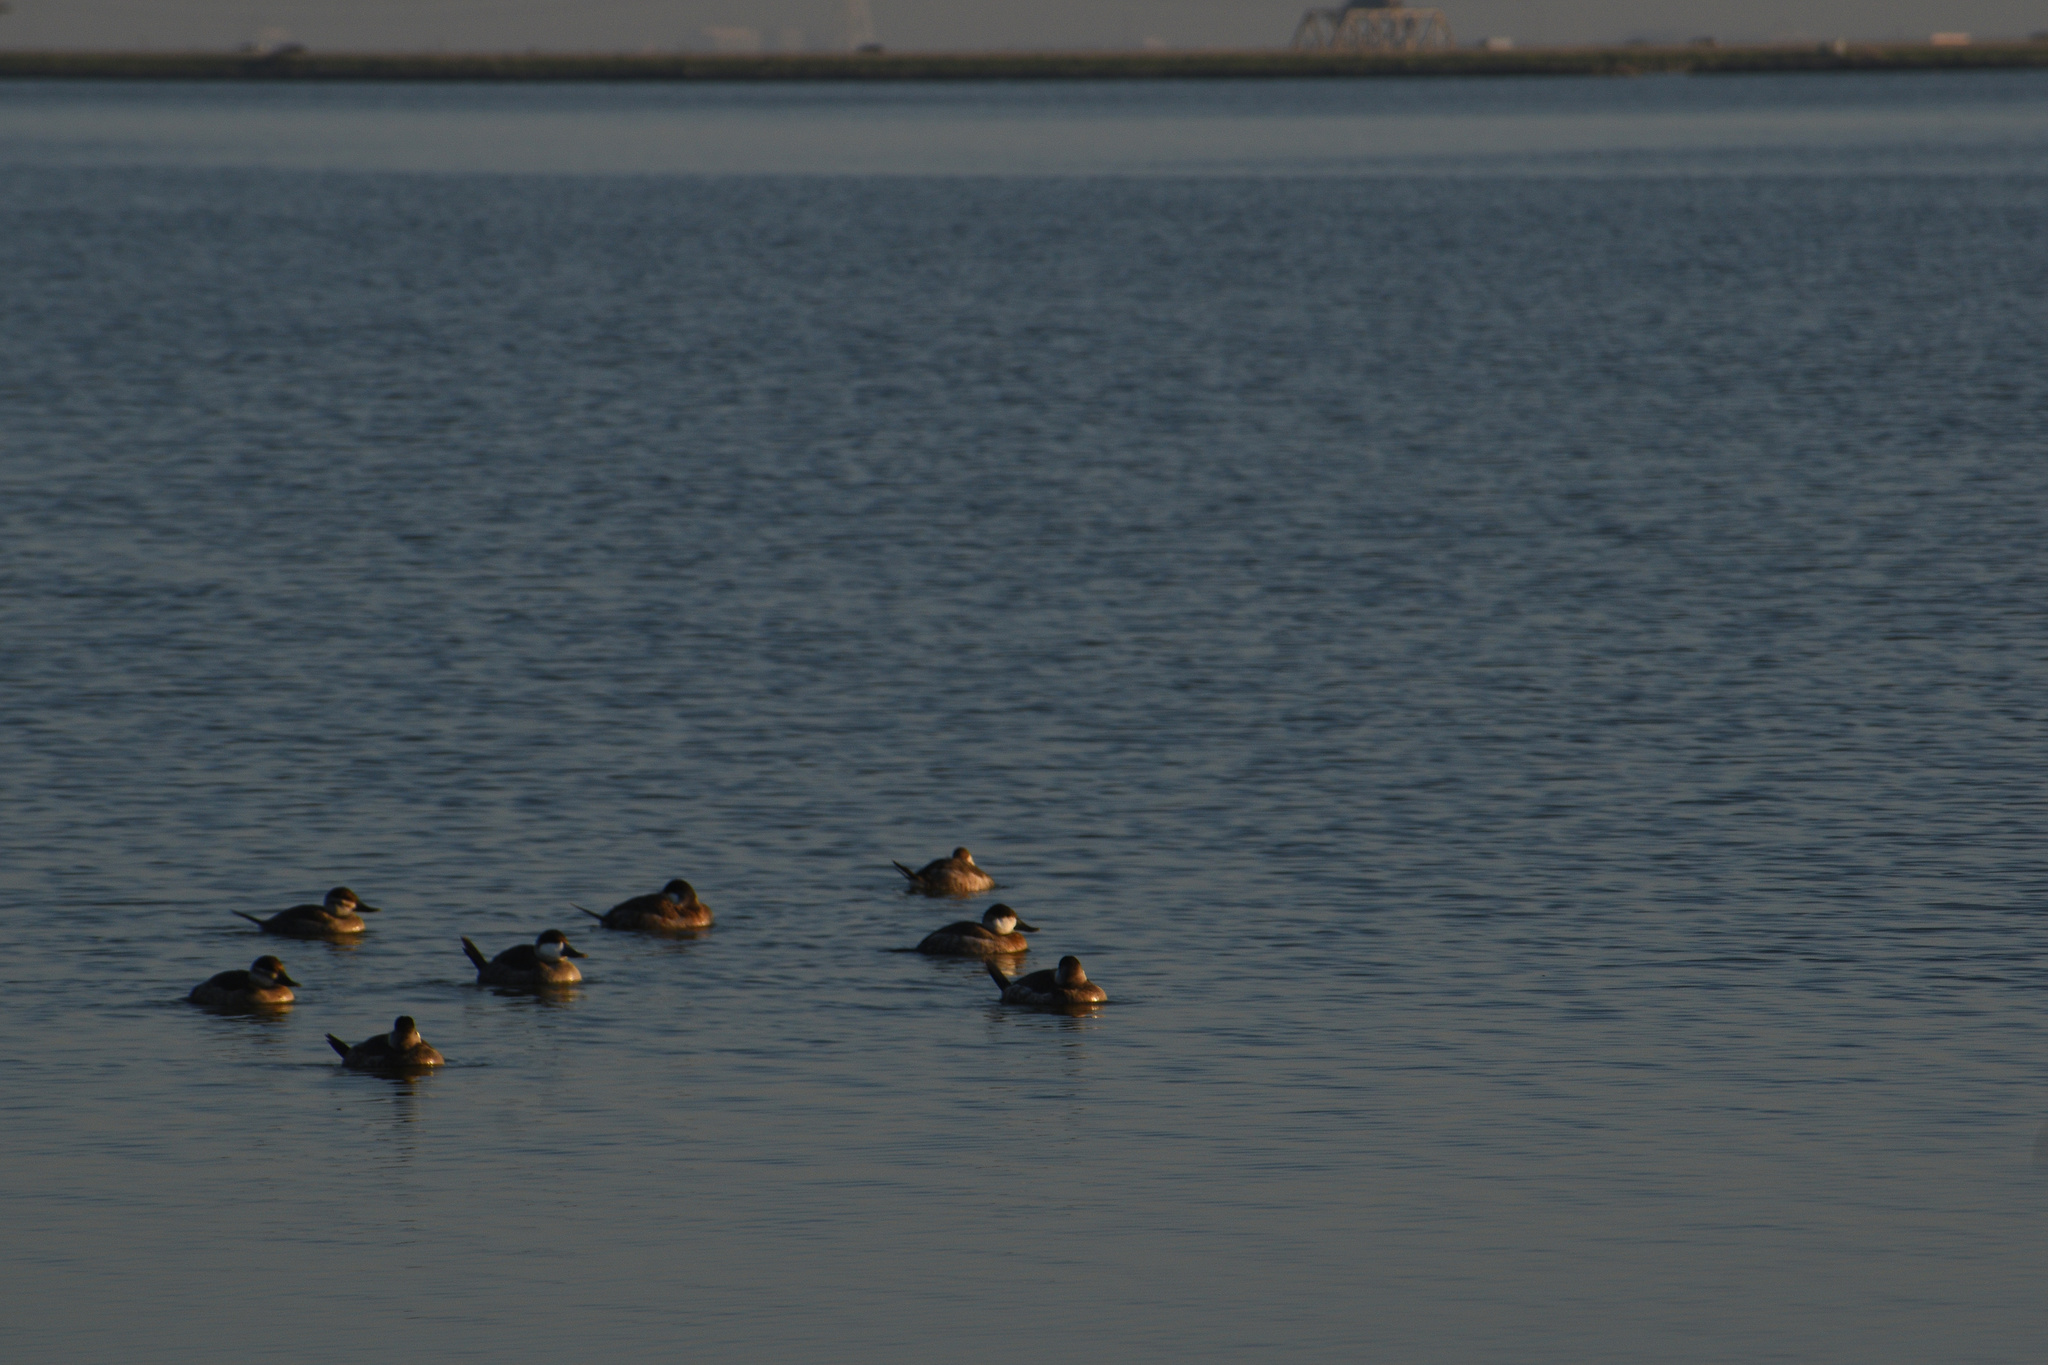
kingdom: Animalia
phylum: Chordata
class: Aves
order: Anseriformes
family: Anatidae
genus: Oxyura
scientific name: Oxyura jamaicensis
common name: Ruddy duck
